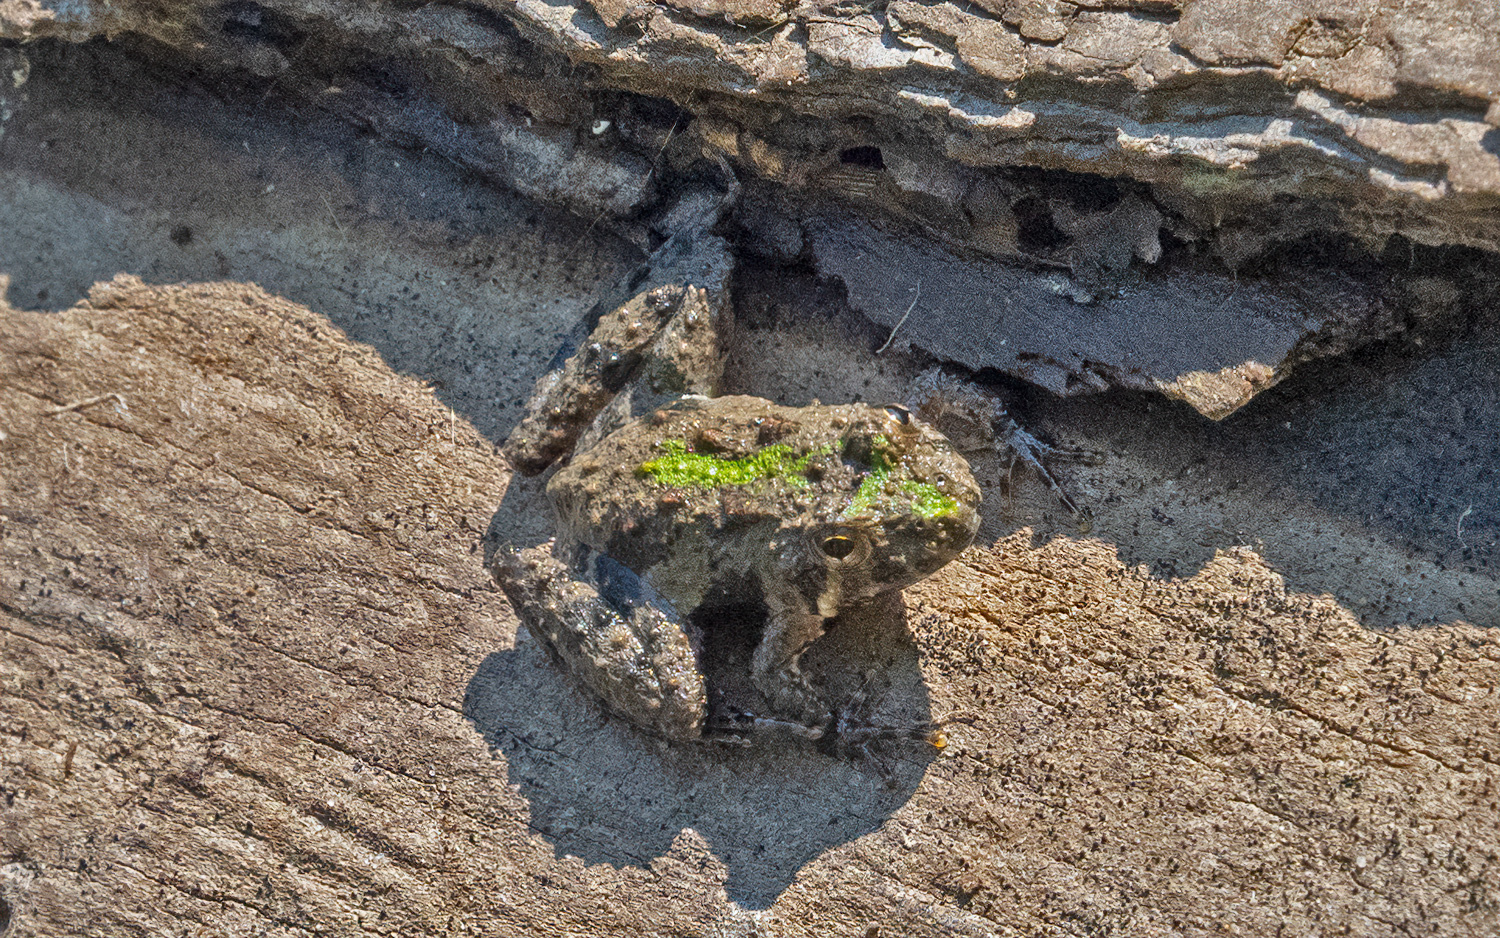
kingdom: Animalia
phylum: Chordata
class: Amphibia
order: Anura
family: Hylidae
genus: Acris
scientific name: Acris crepitans
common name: Northern cricket frog
